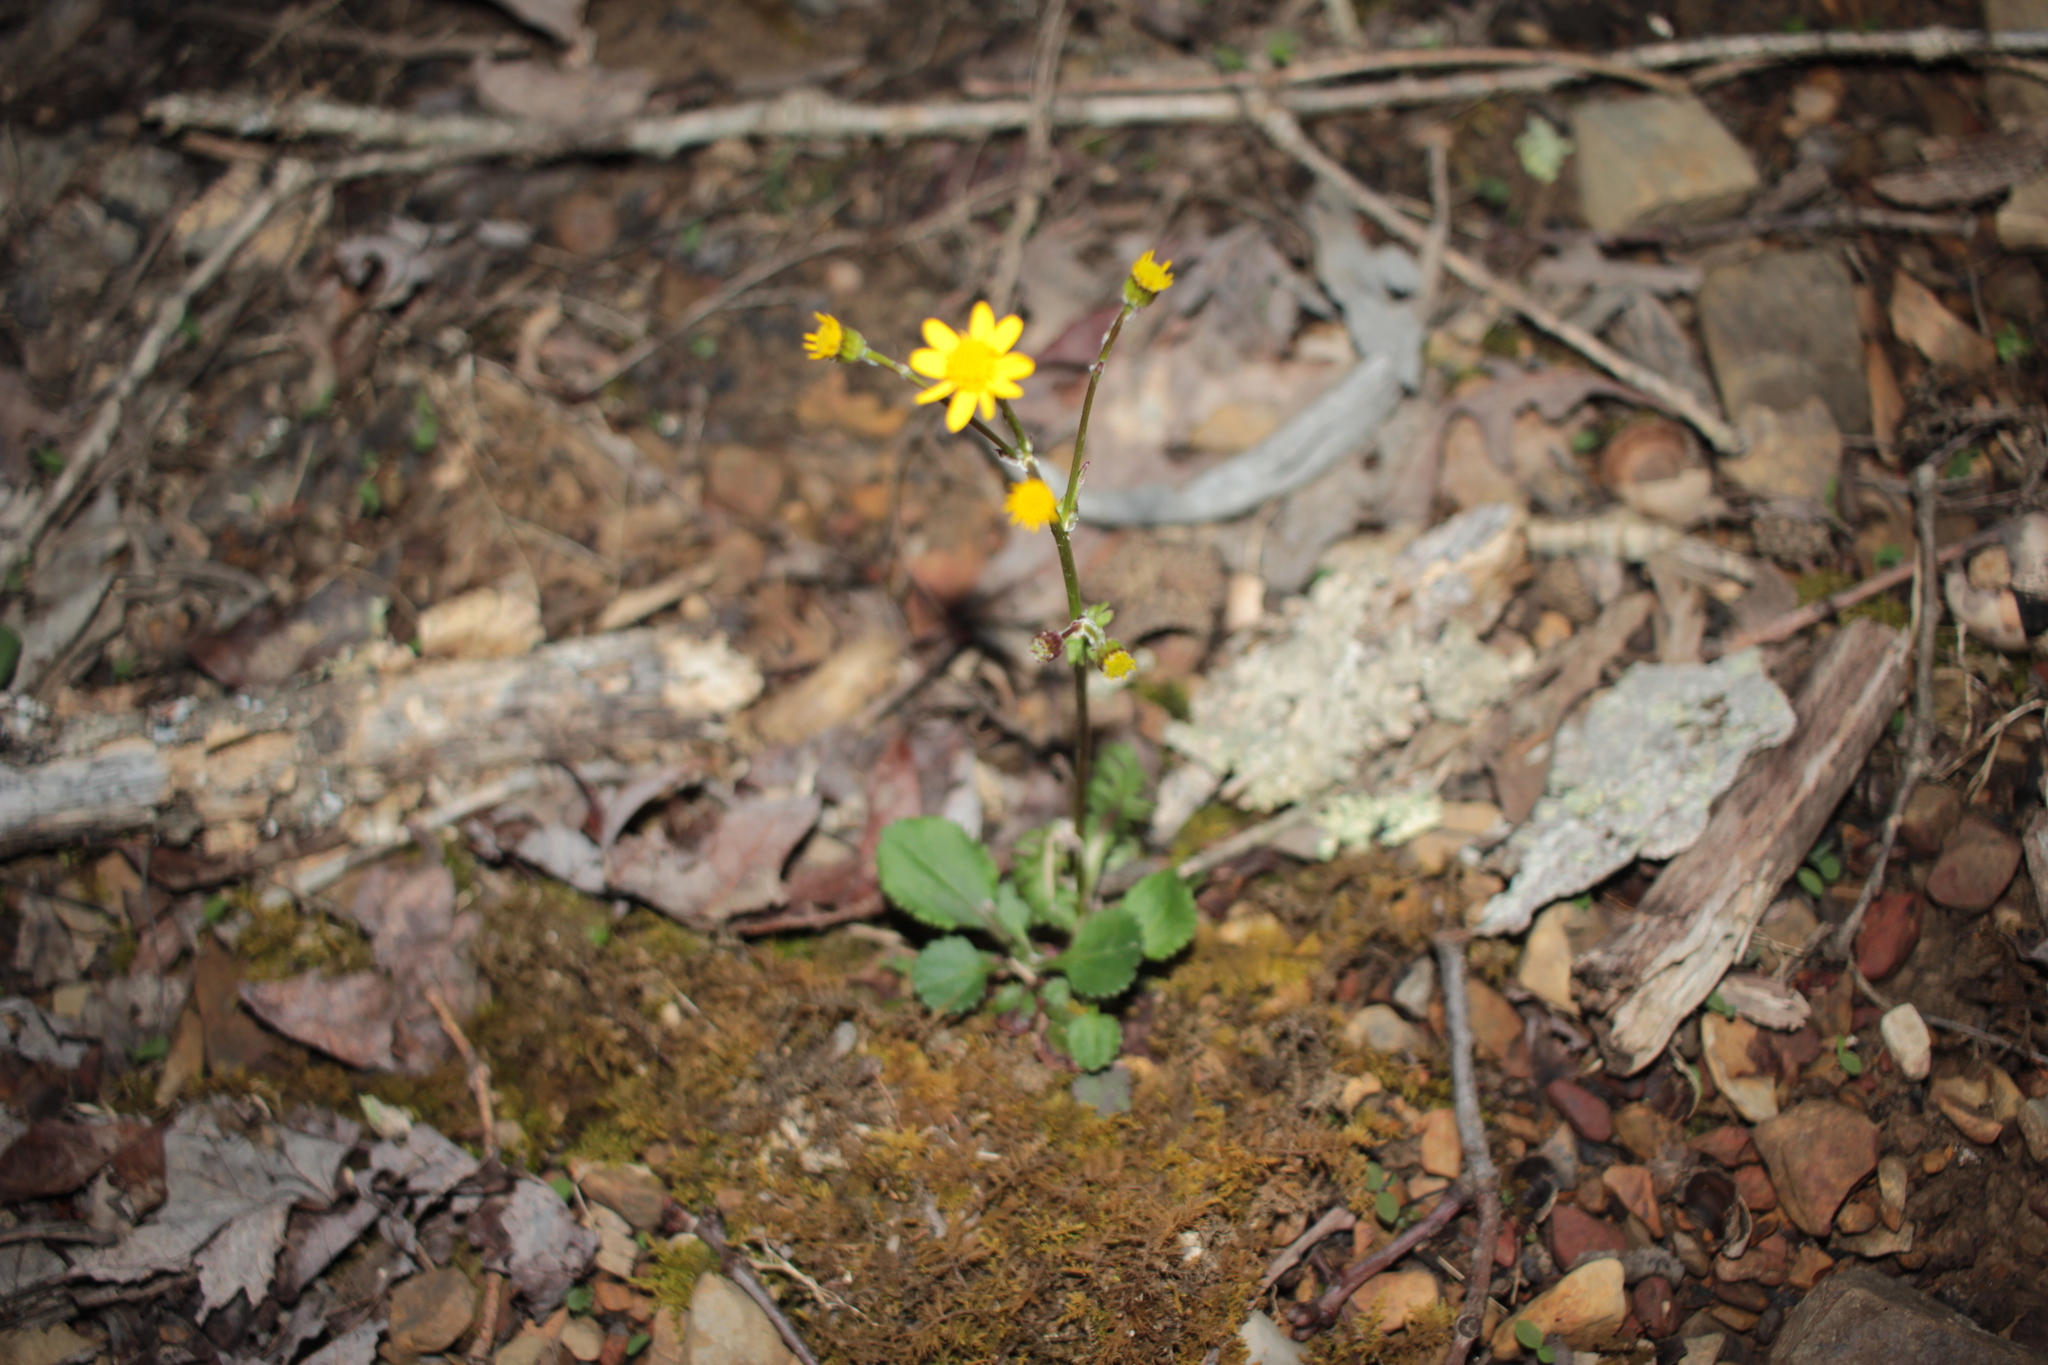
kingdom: Plantae
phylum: Tracheophyta
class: Magnoliopsida
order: Asterales
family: Asteraceae
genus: Packera
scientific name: Packera paupercula
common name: Balsam groundsel
